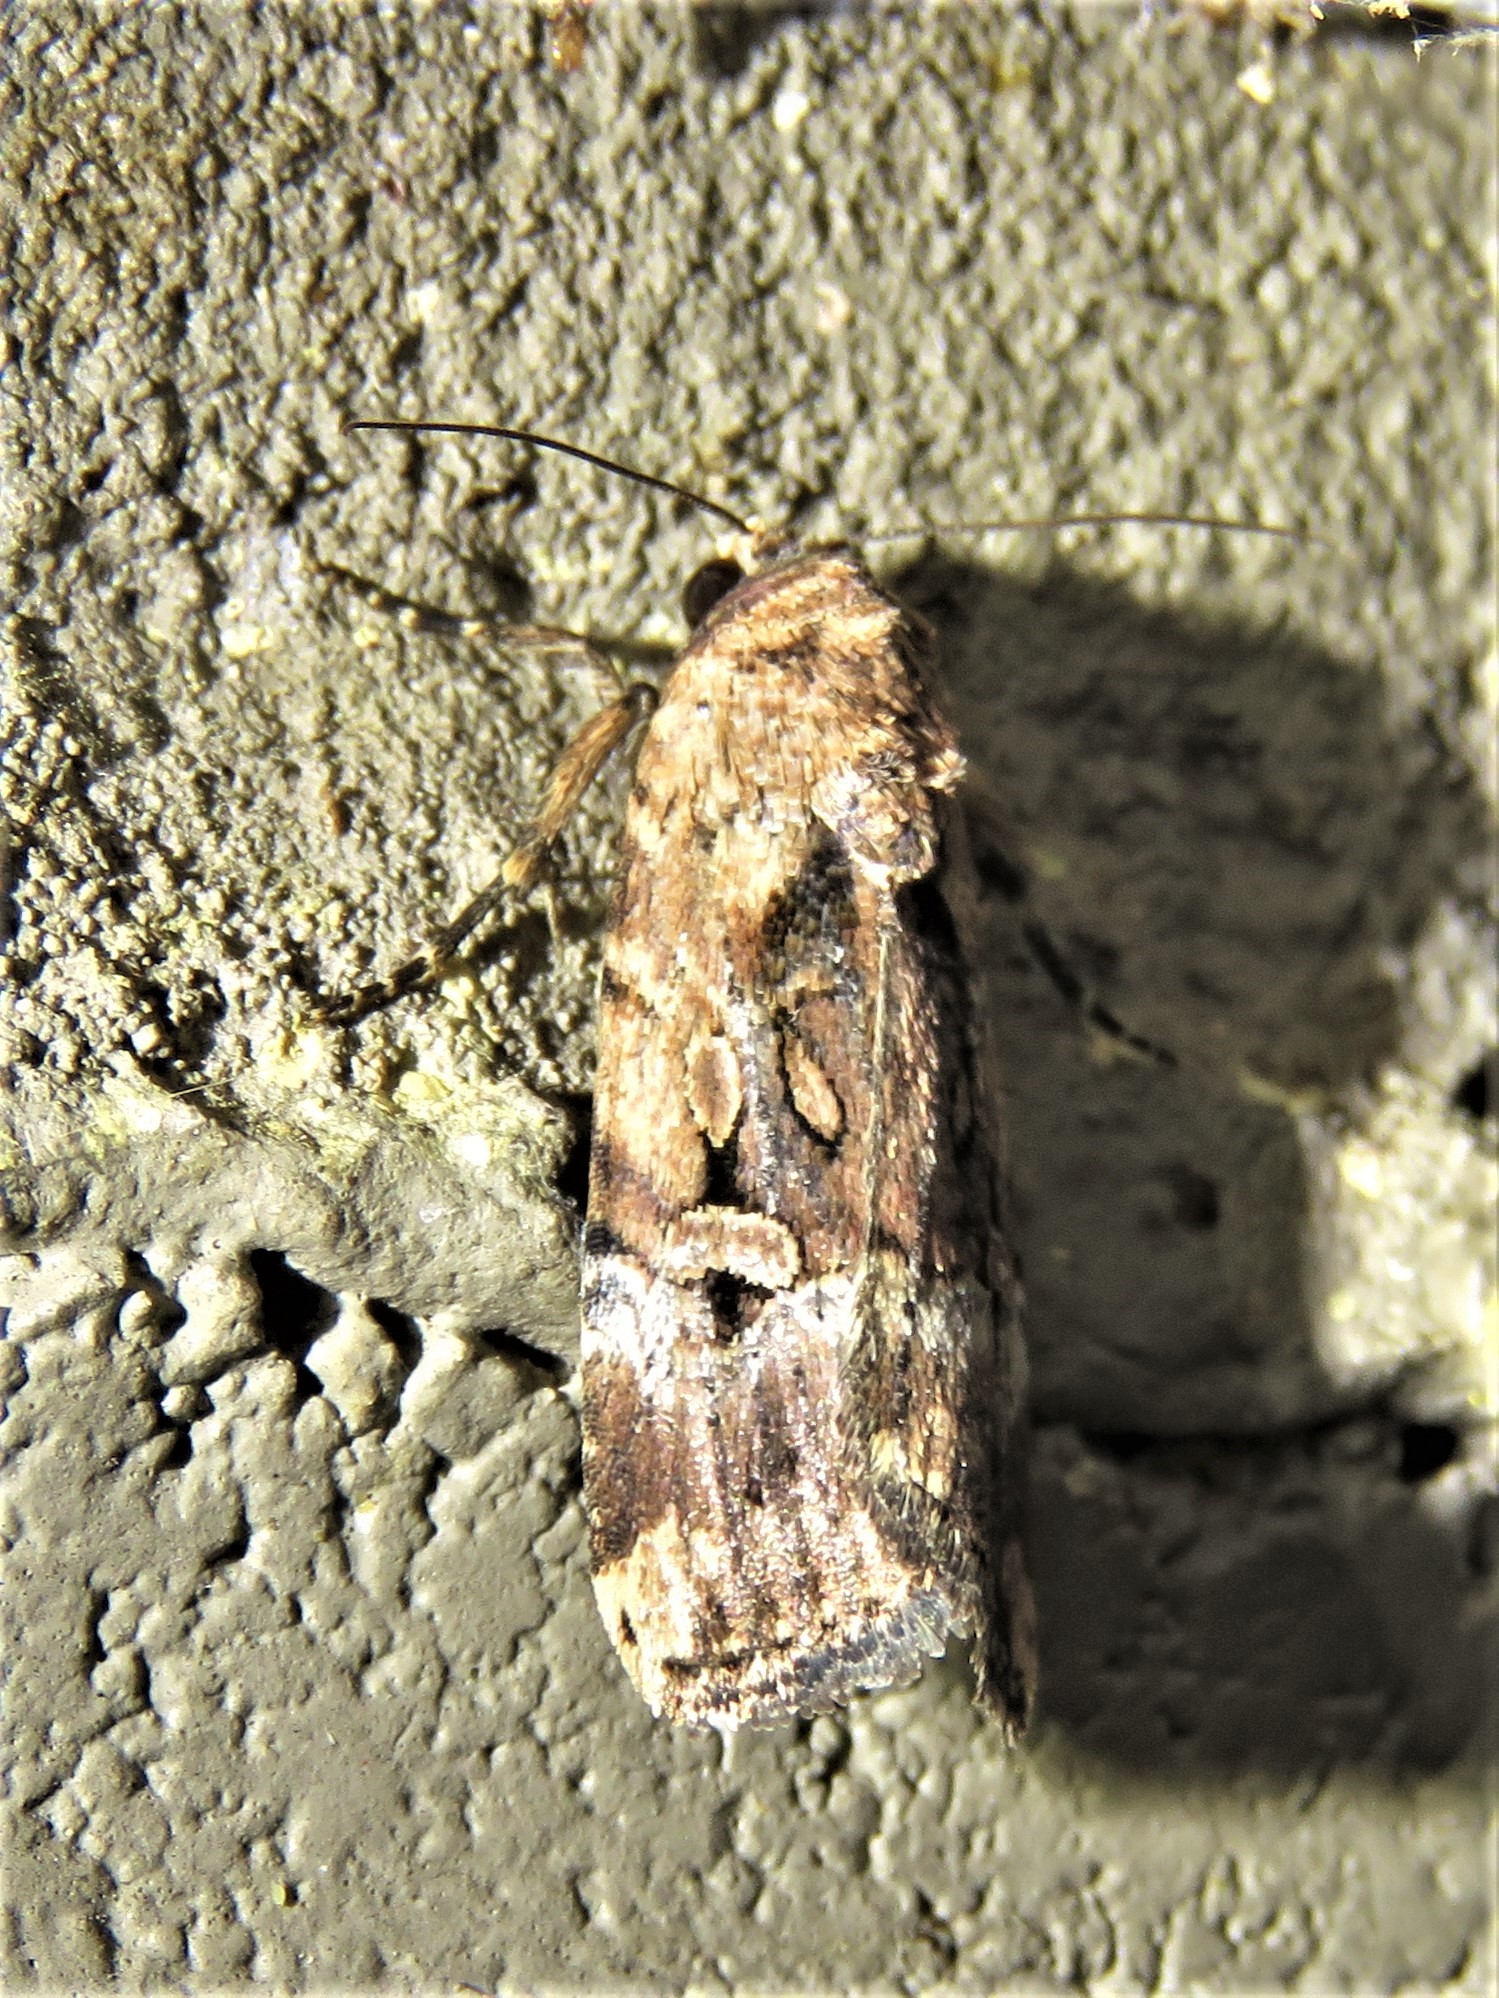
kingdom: Animalia
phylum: Arthropoda
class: Insecta
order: Lepidoptera
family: Noctuidae
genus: Elaphria
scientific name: Elaphria chalcedonia
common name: Chalcedony midget
